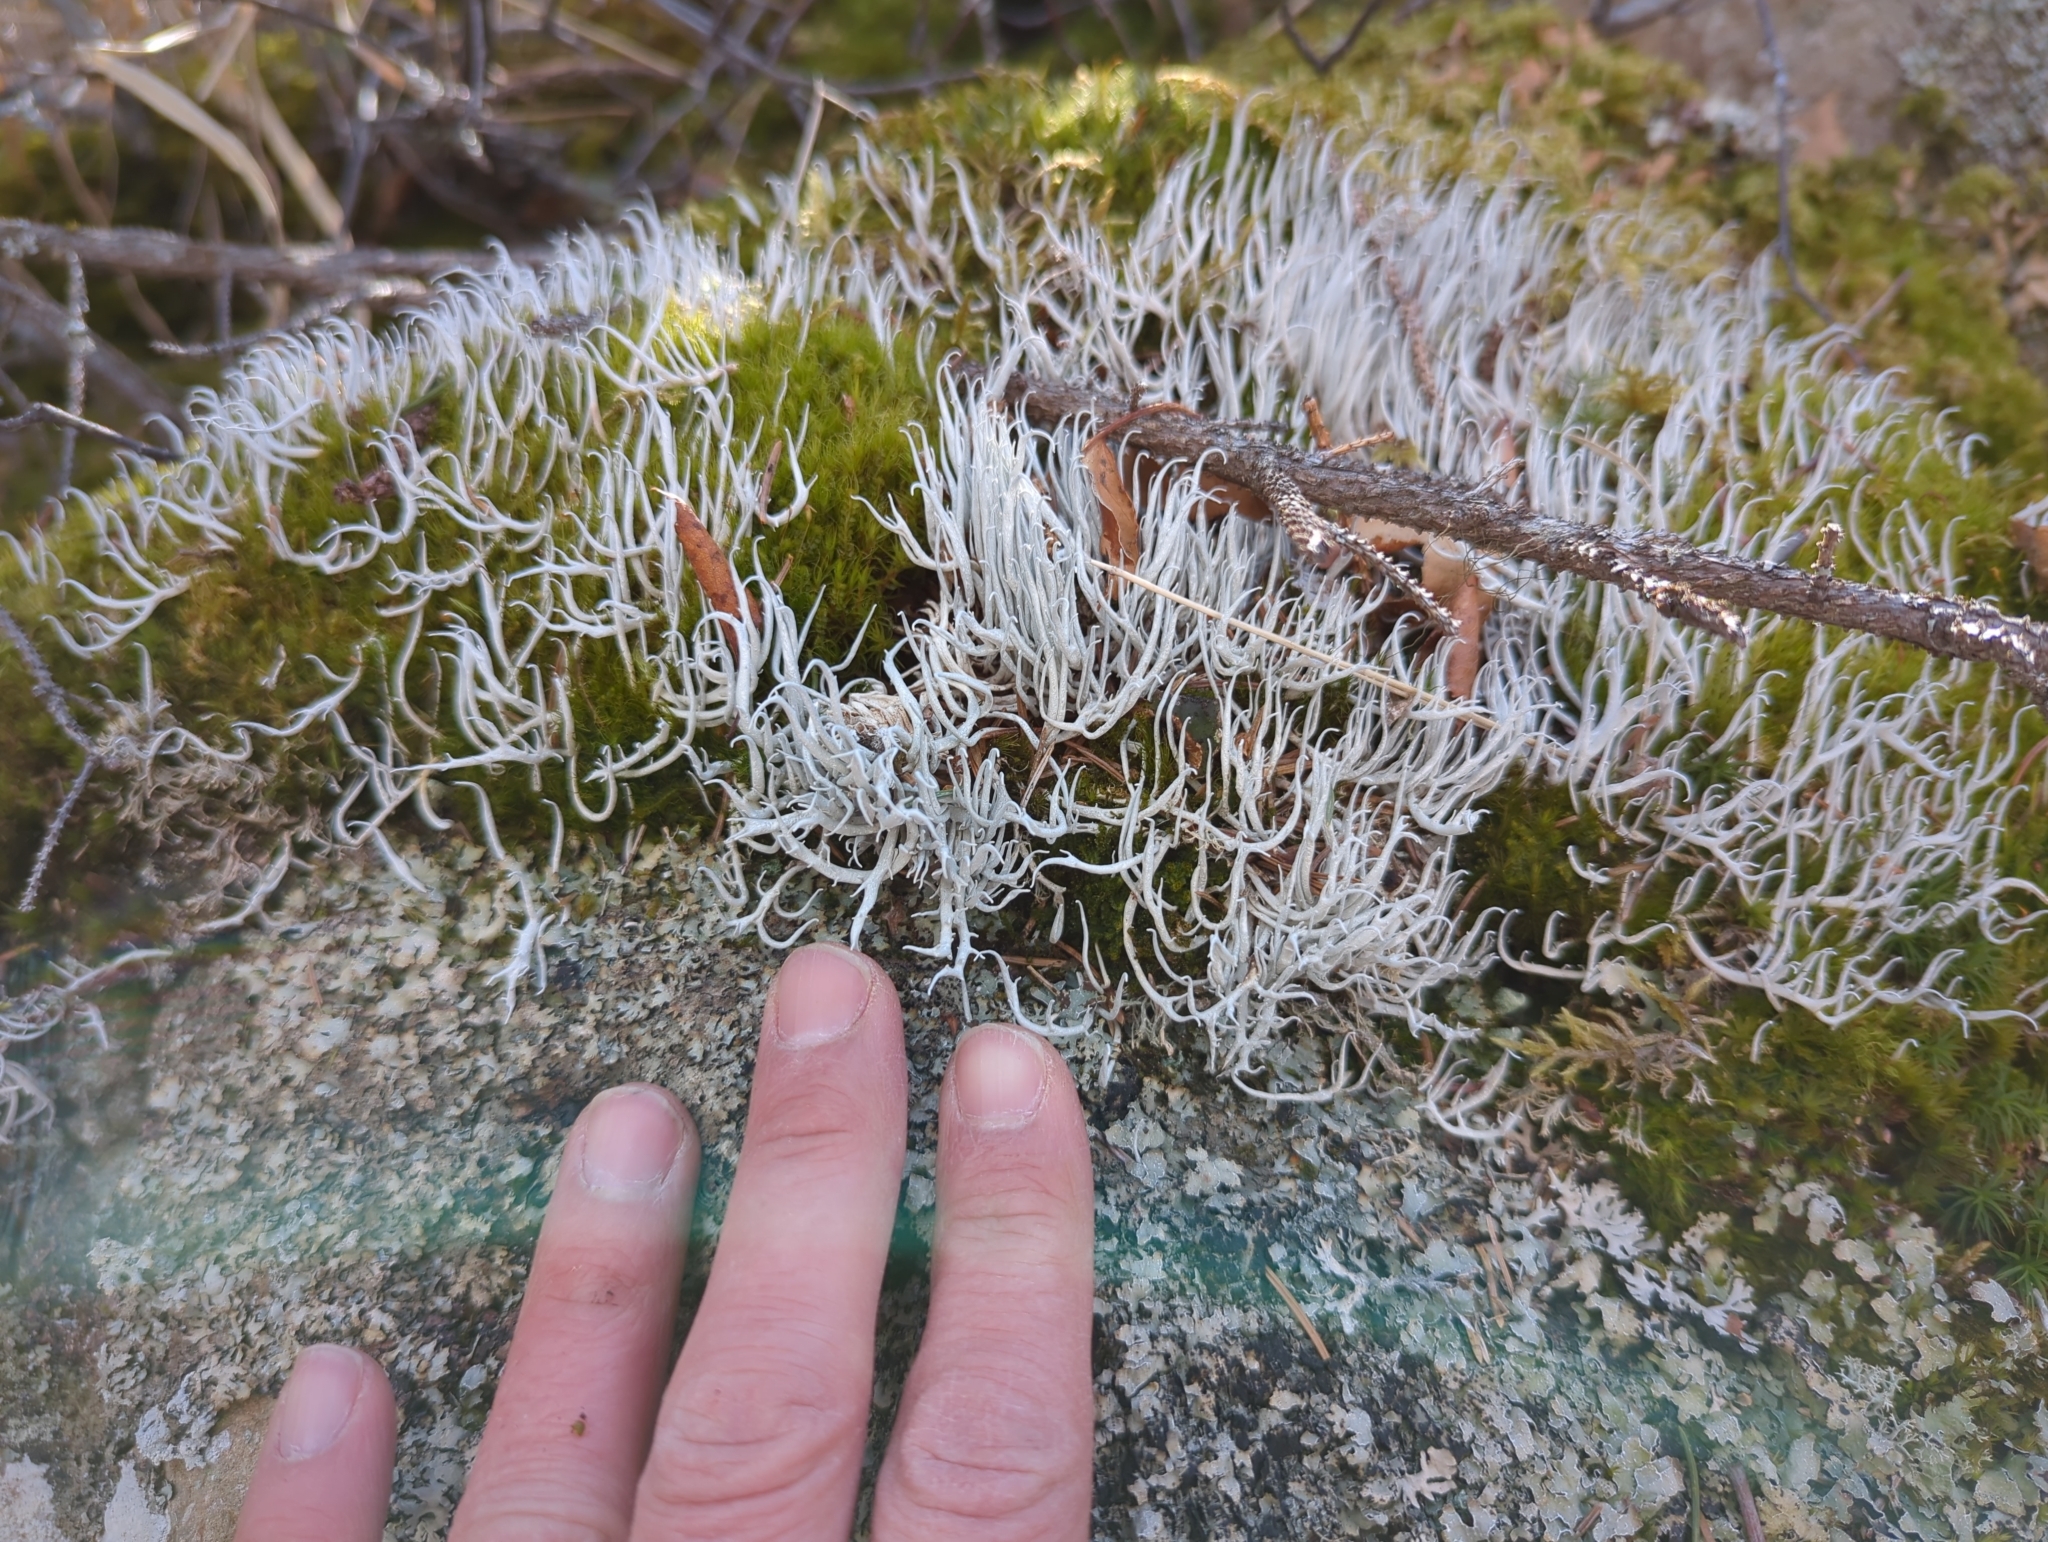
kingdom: Fungi
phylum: Ascomycota
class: Lecanoromycetes
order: Pertusariales
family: Icmadophilaceae
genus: Thamnolia
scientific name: Thamnolia vermicularis
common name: Whiteworm lichen
